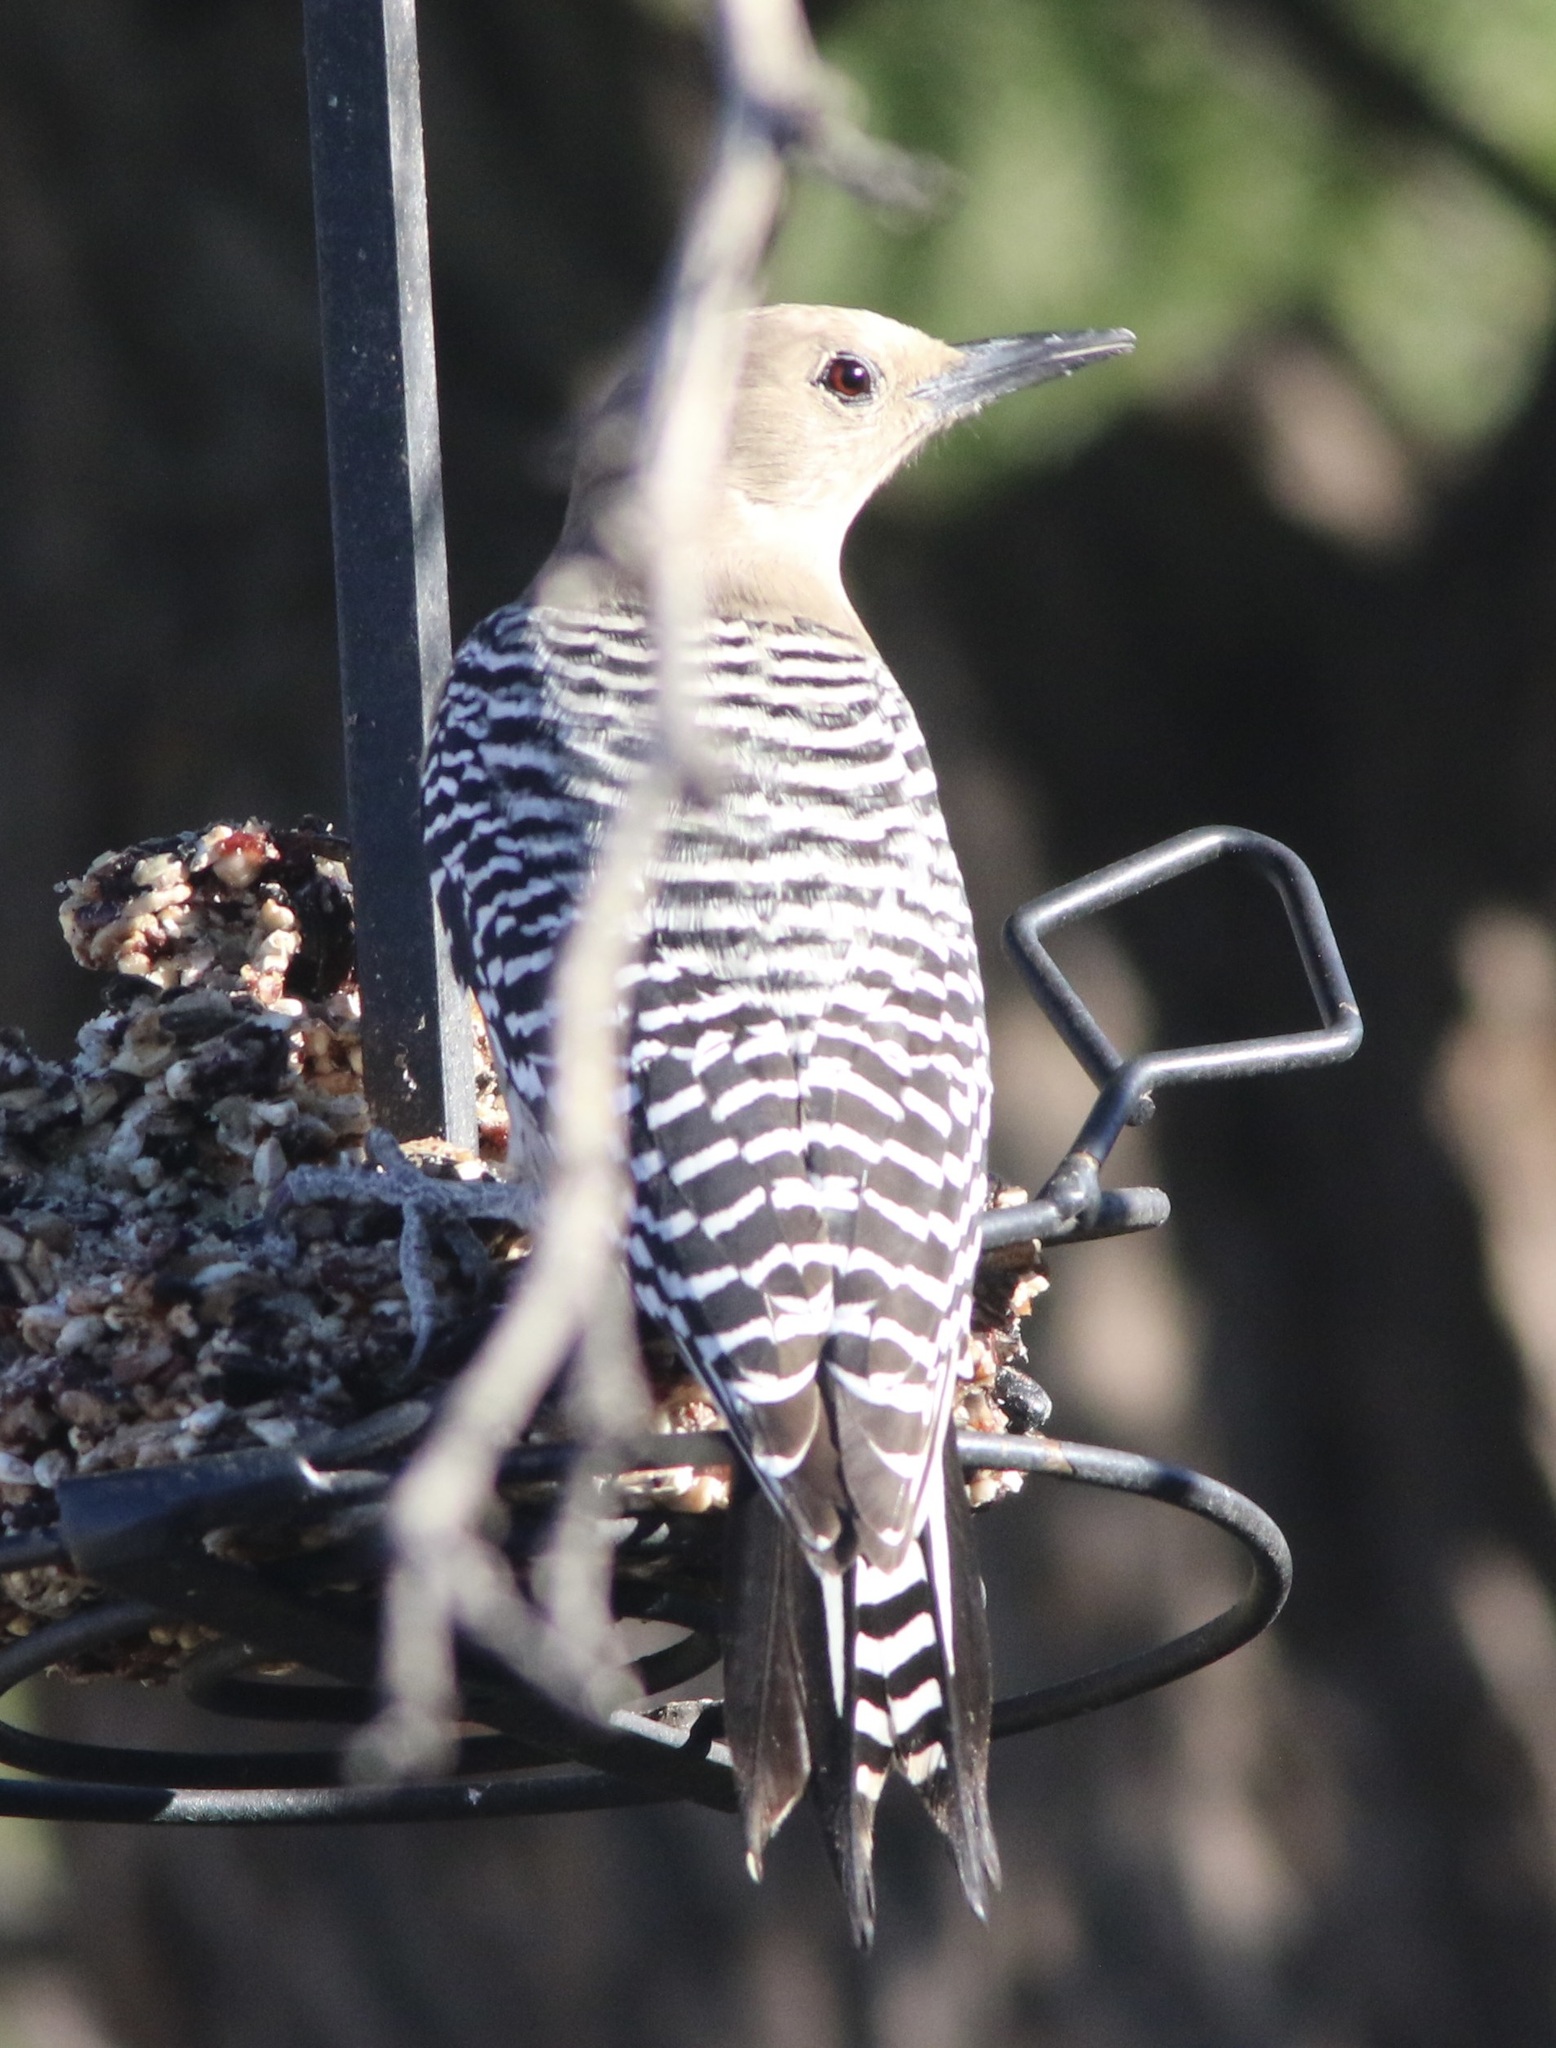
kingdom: Animalia
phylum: Chordata
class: Aves
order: Piciformes
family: Picidae
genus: Melanerpes
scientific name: Melanerpes uropygialis
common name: Gila woodpecker
